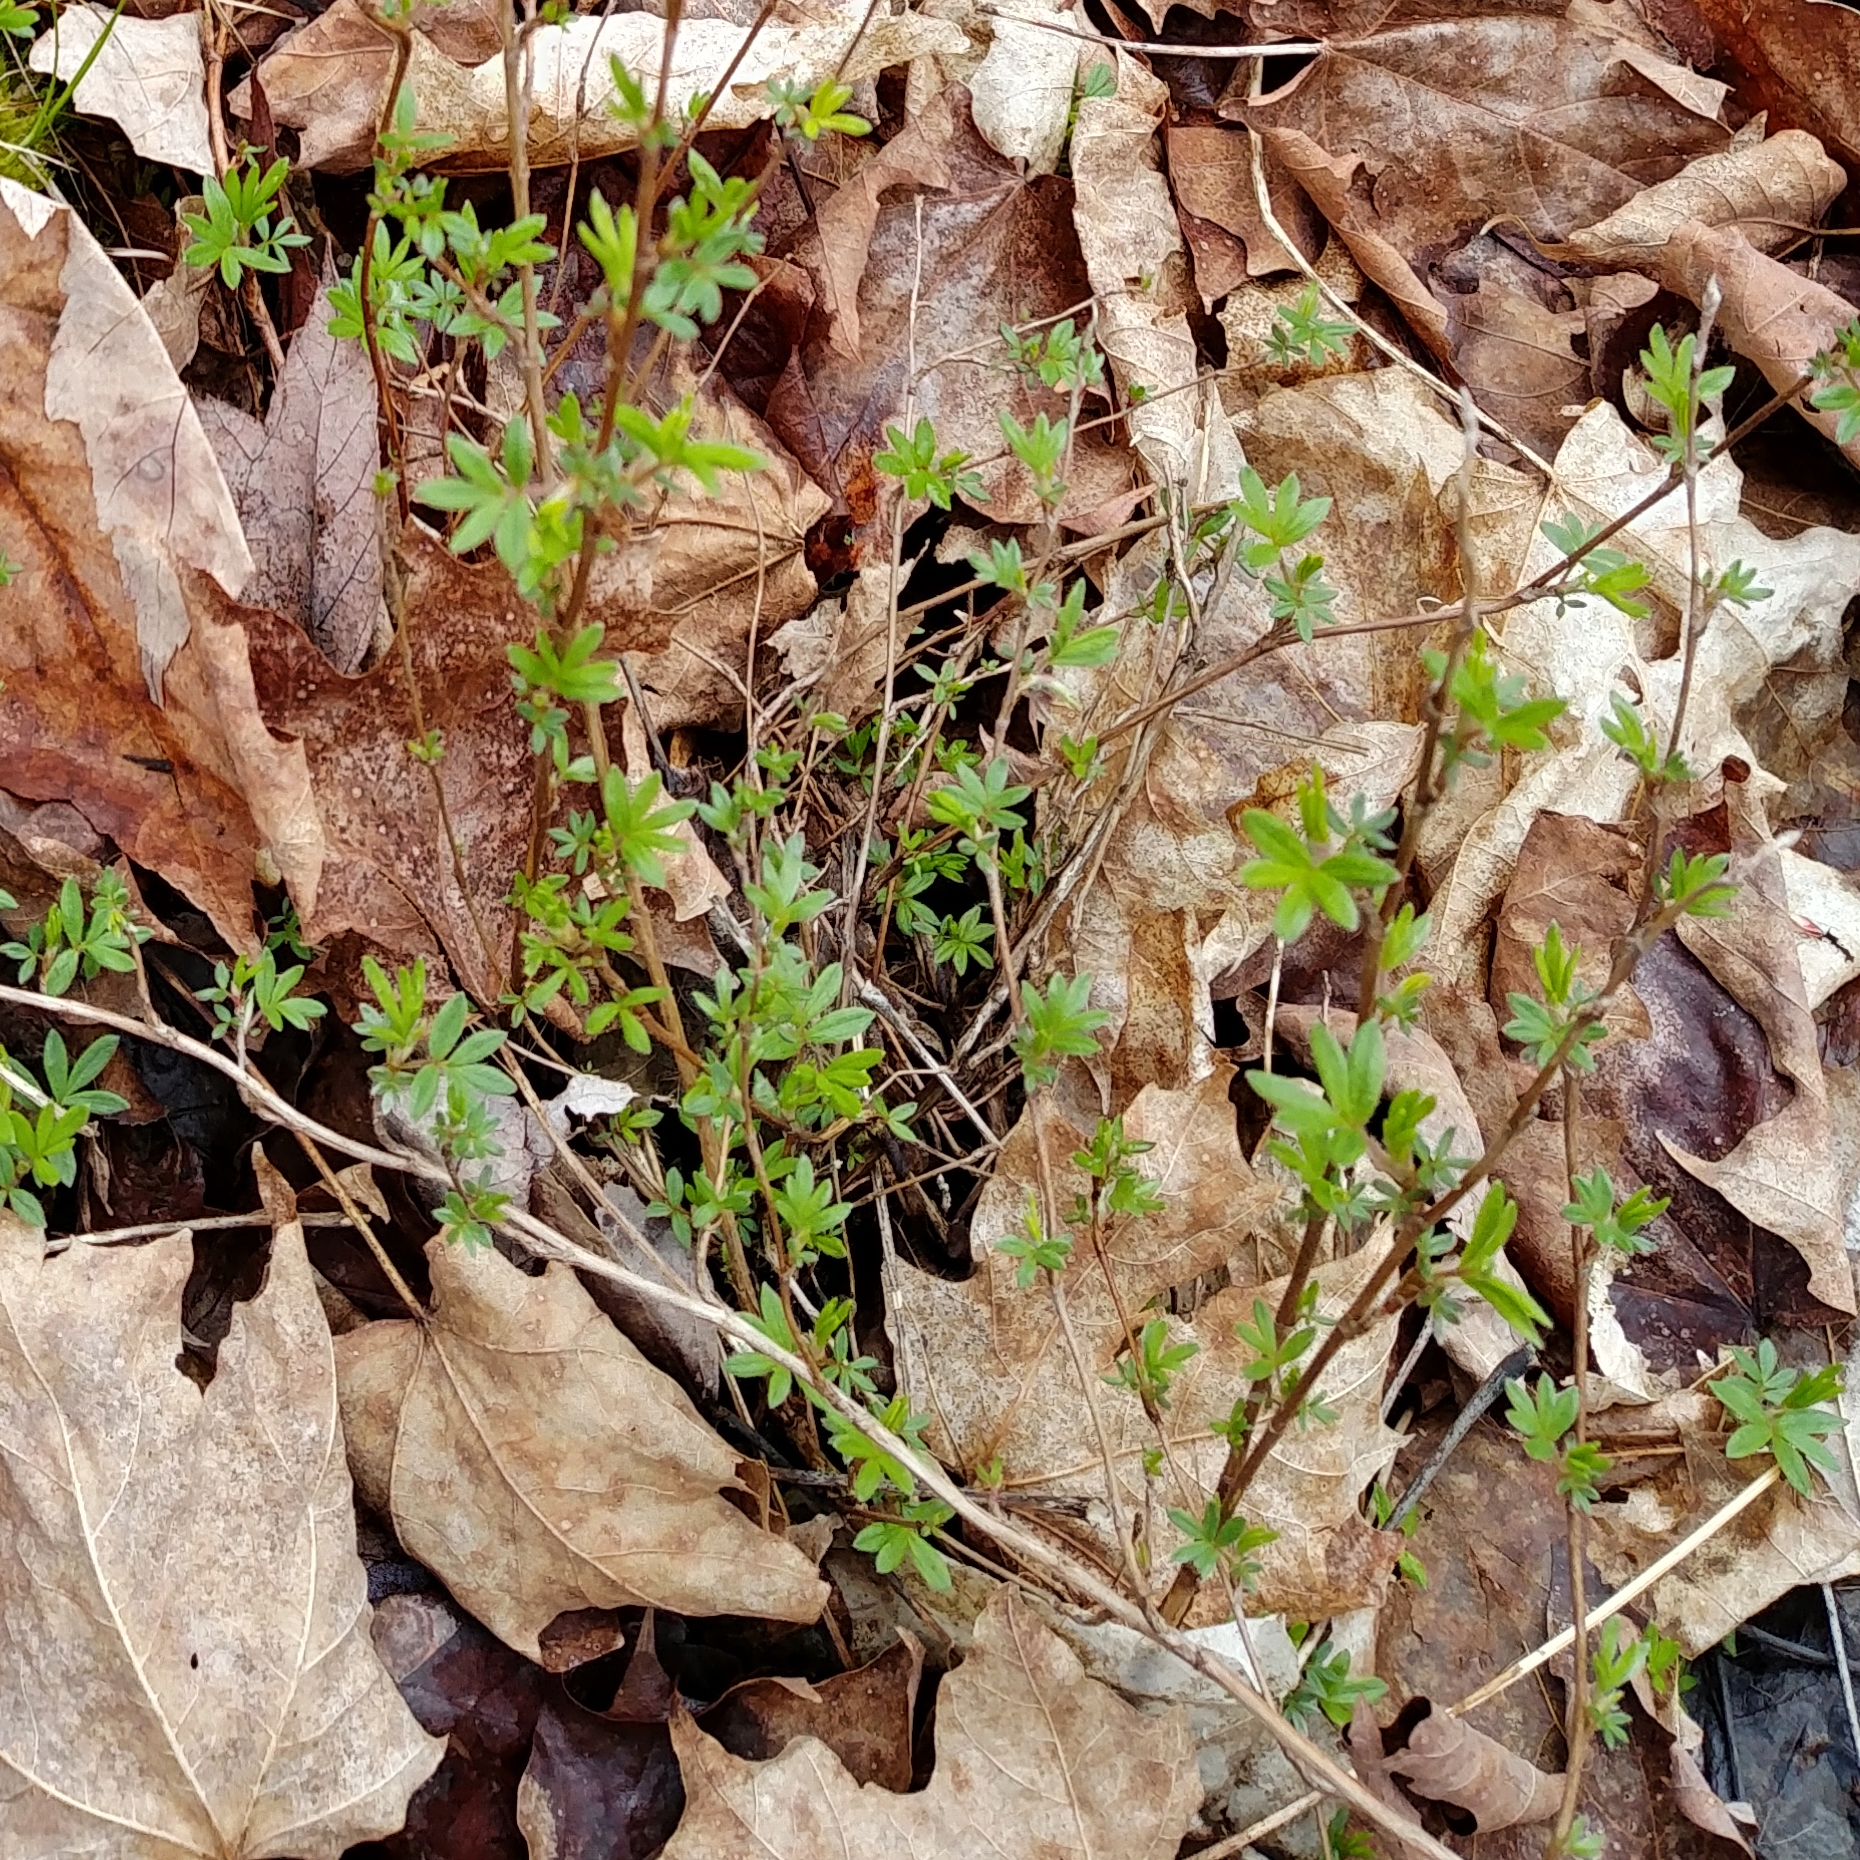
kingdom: Plantae
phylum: Tracheophyta
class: Magnoliopsida
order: Rosales
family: Rosaceae
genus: Dasiphora
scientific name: Dasiphora fruticosa
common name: Shrubby cinquefoil
